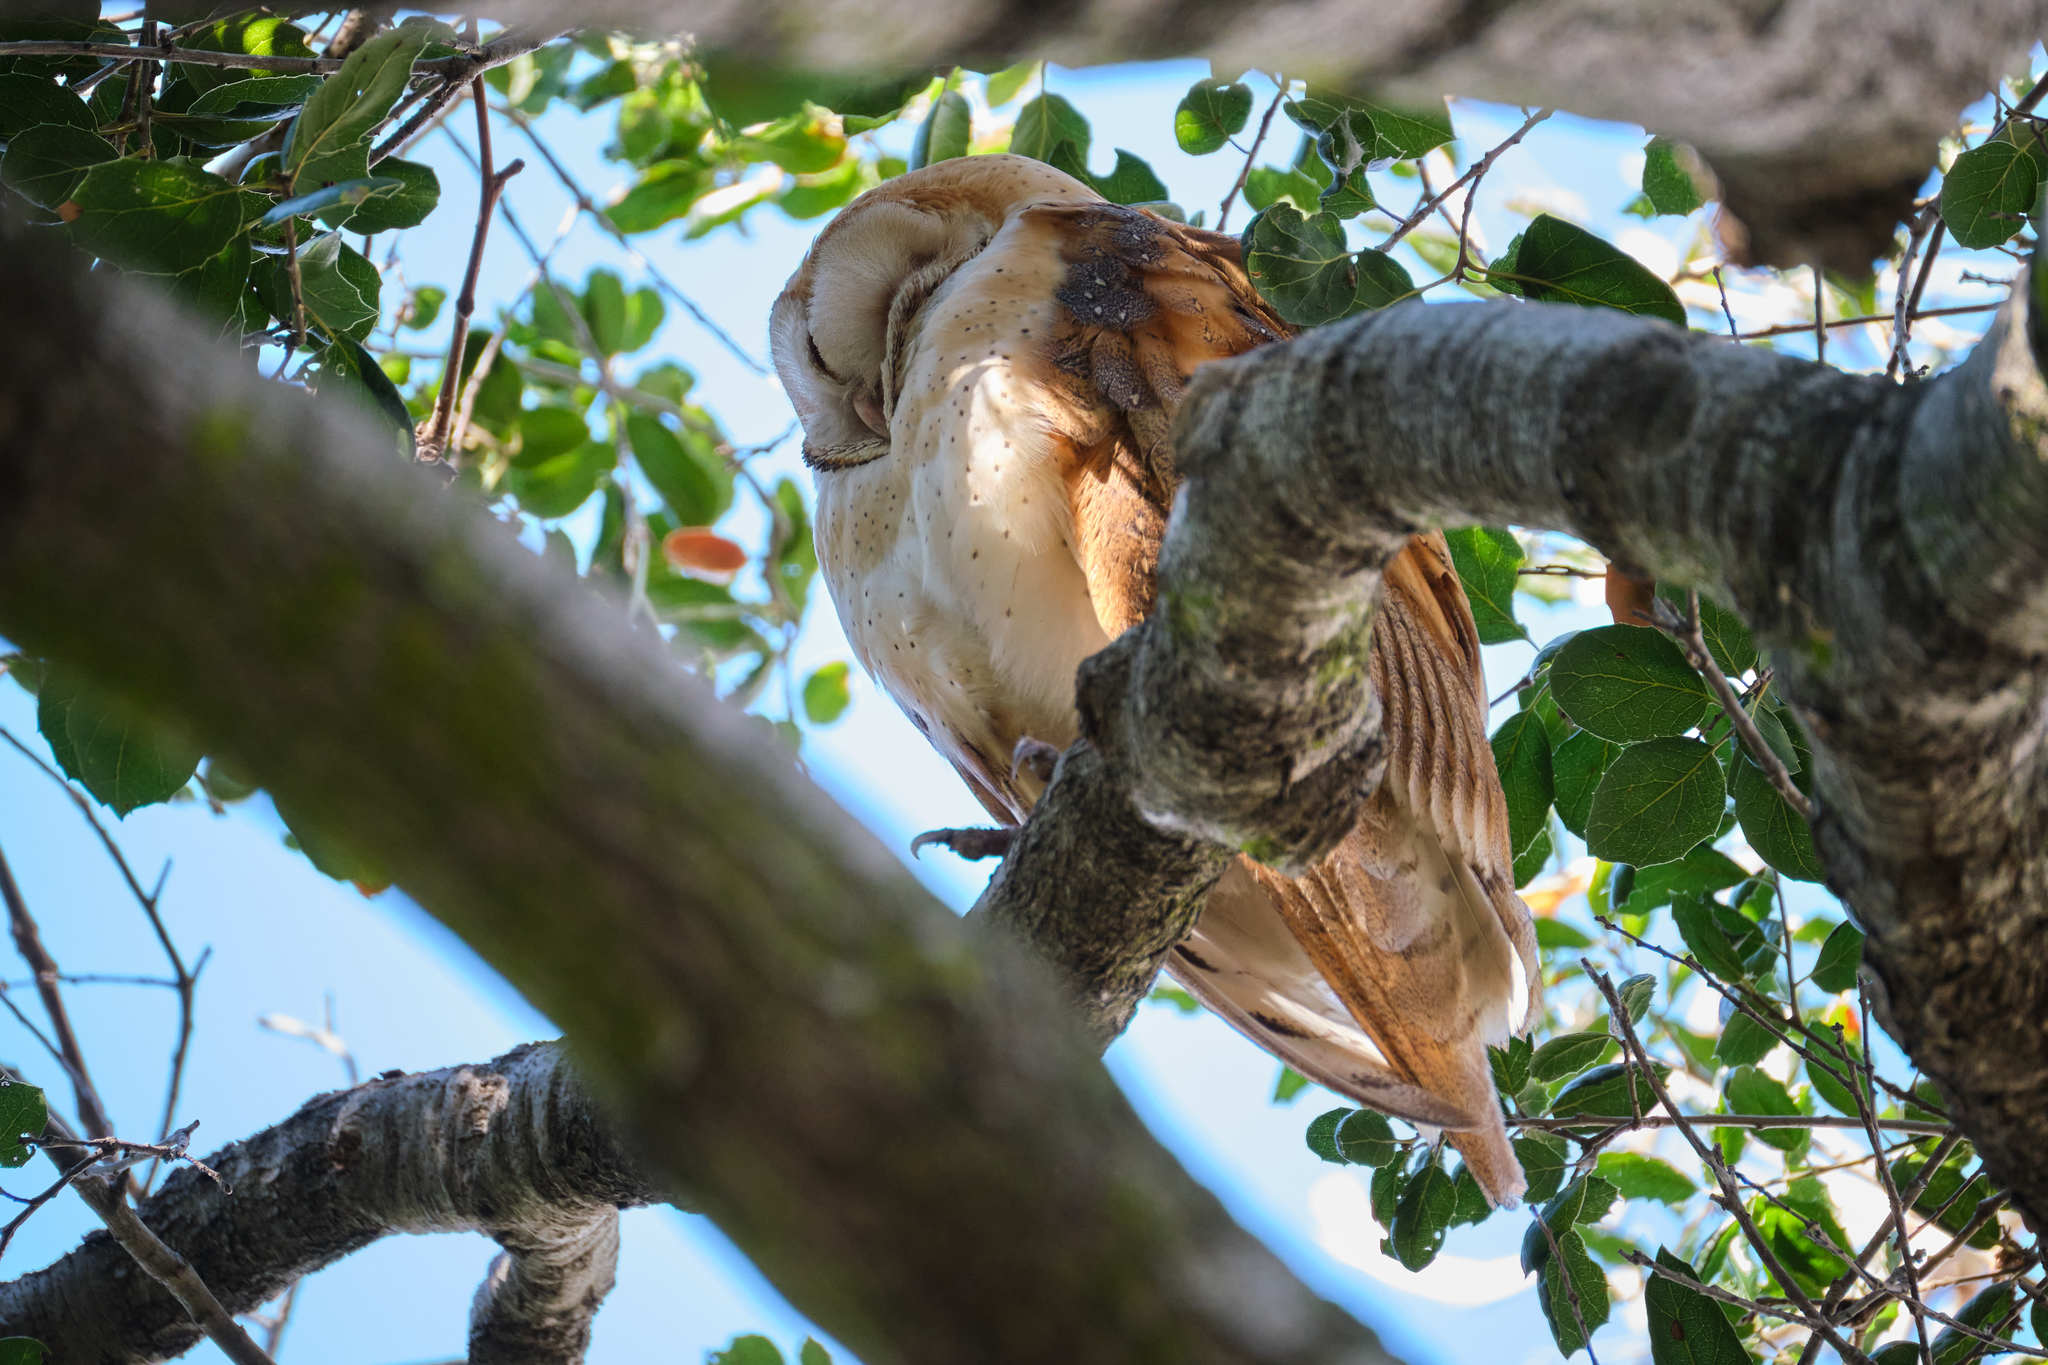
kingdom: Animalia
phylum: Chordata
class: Aves
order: Strigiformes
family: Tytonidae
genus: Tyto
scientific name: Tyto alba
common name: Barn owl
